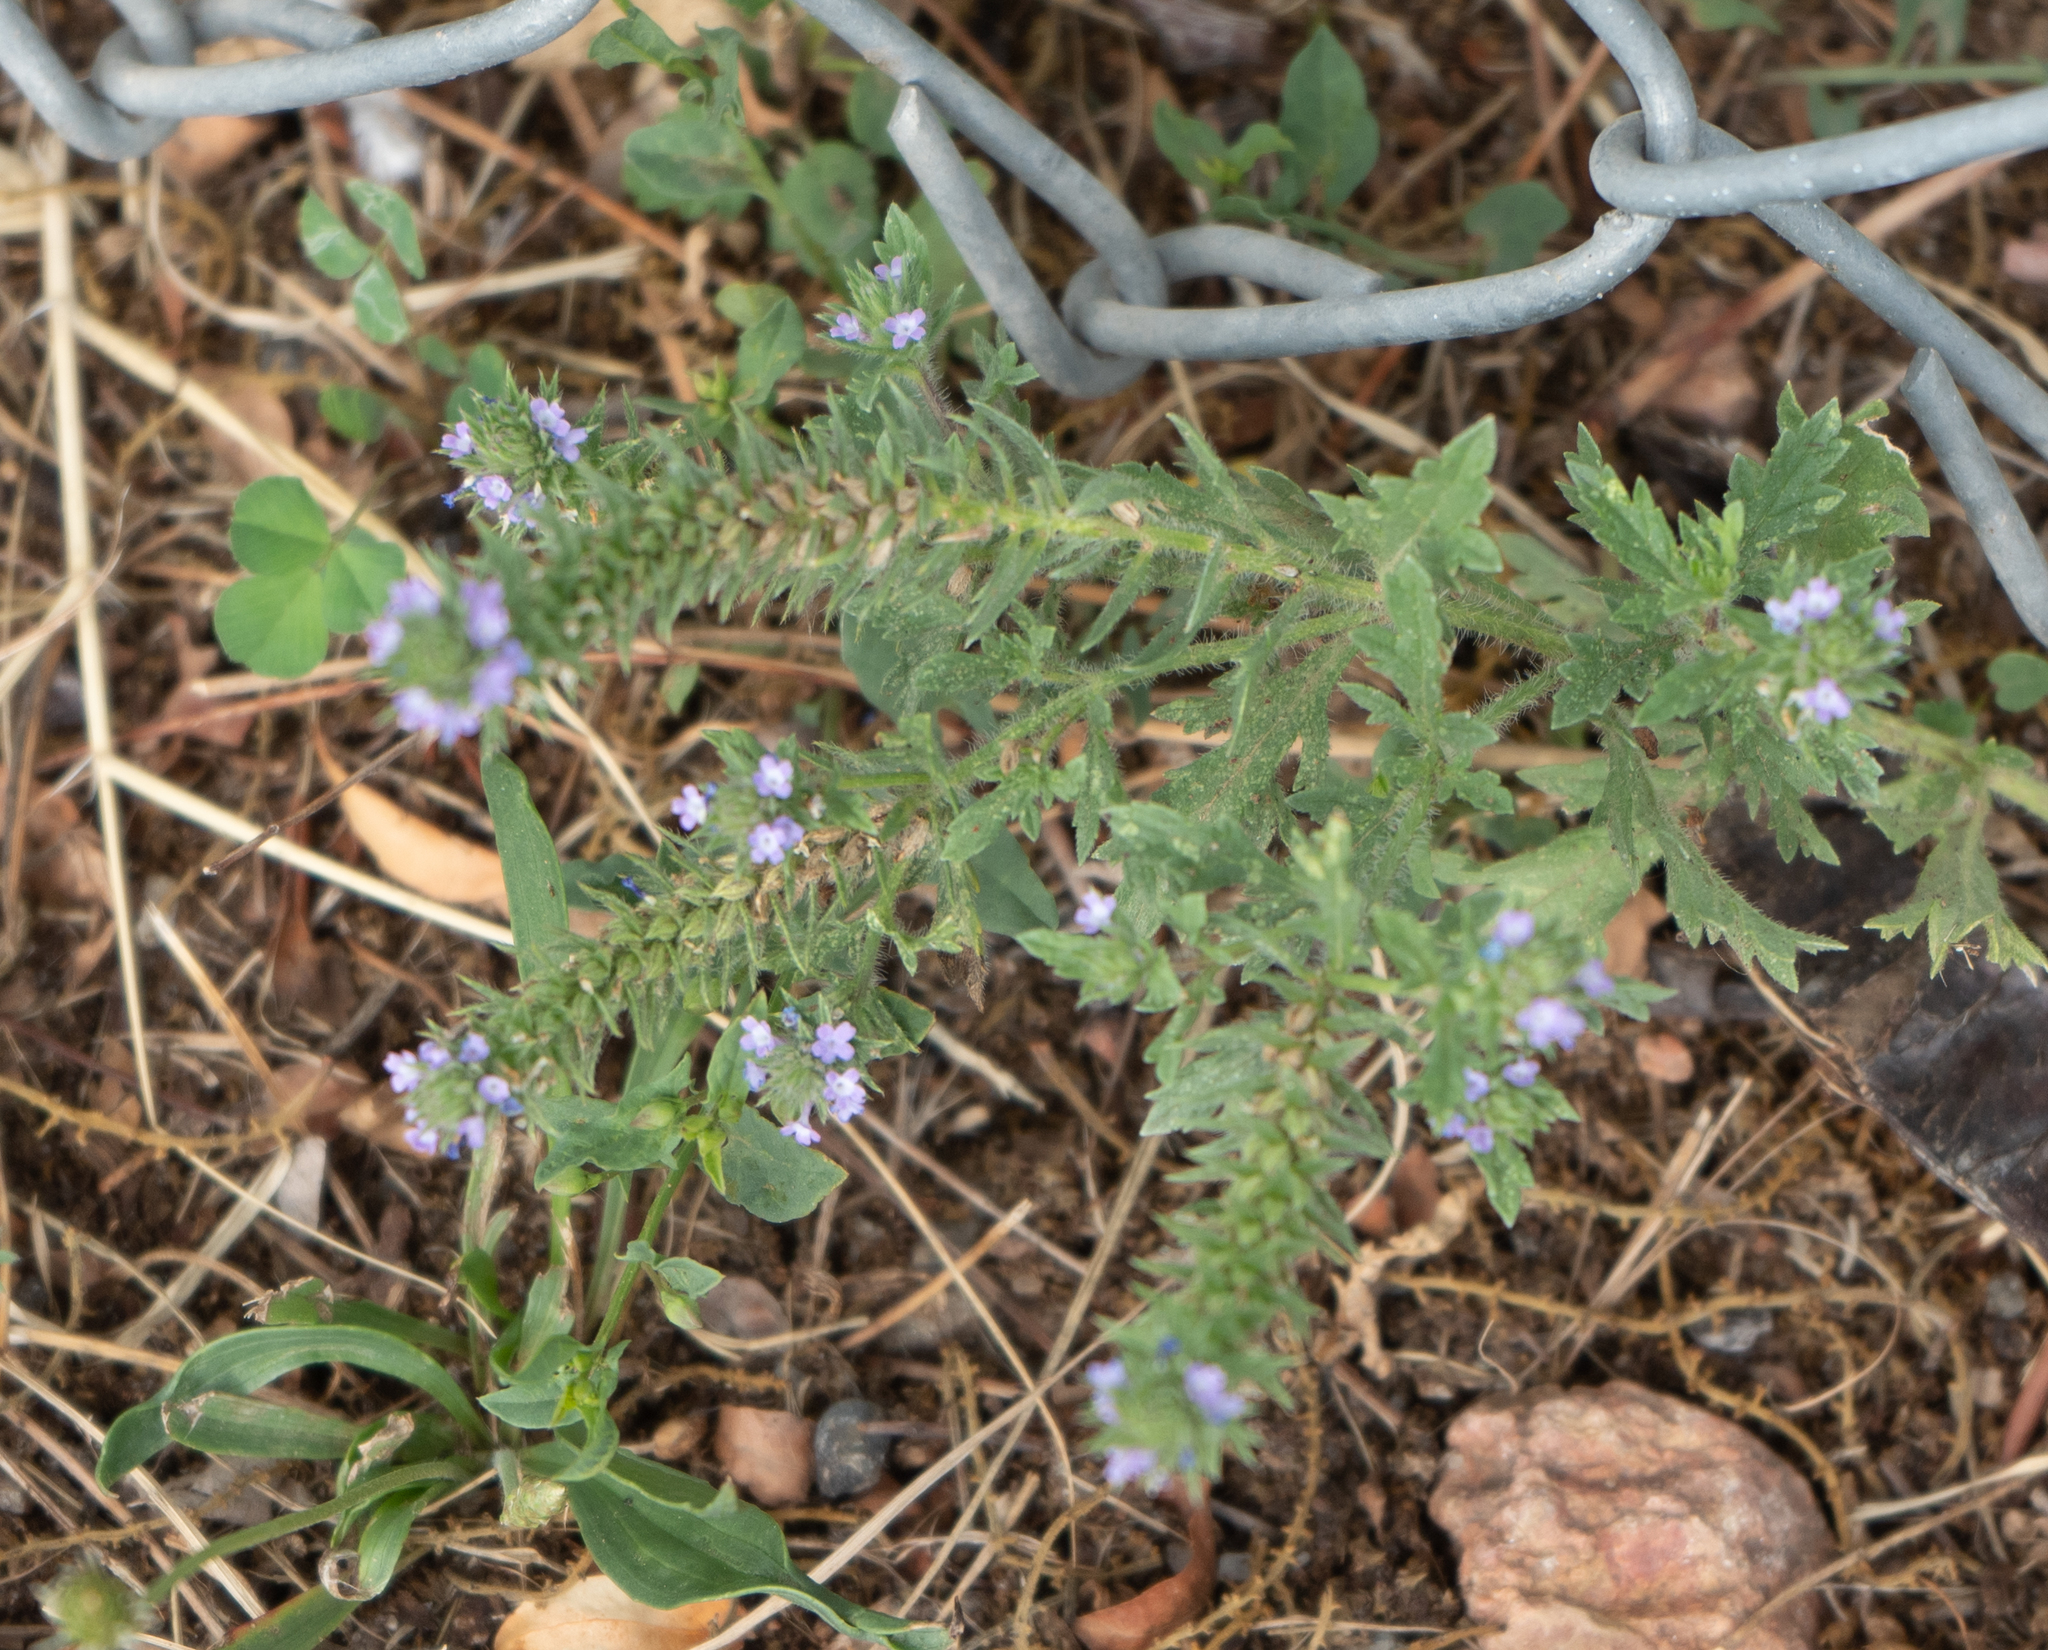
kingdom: Plantae
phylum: Tracheophyta
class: Magnoliopsida
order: Lamiales
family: Verbenaceae
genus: Verbena
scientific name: Verbena bracteata
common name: Bracted vervain
